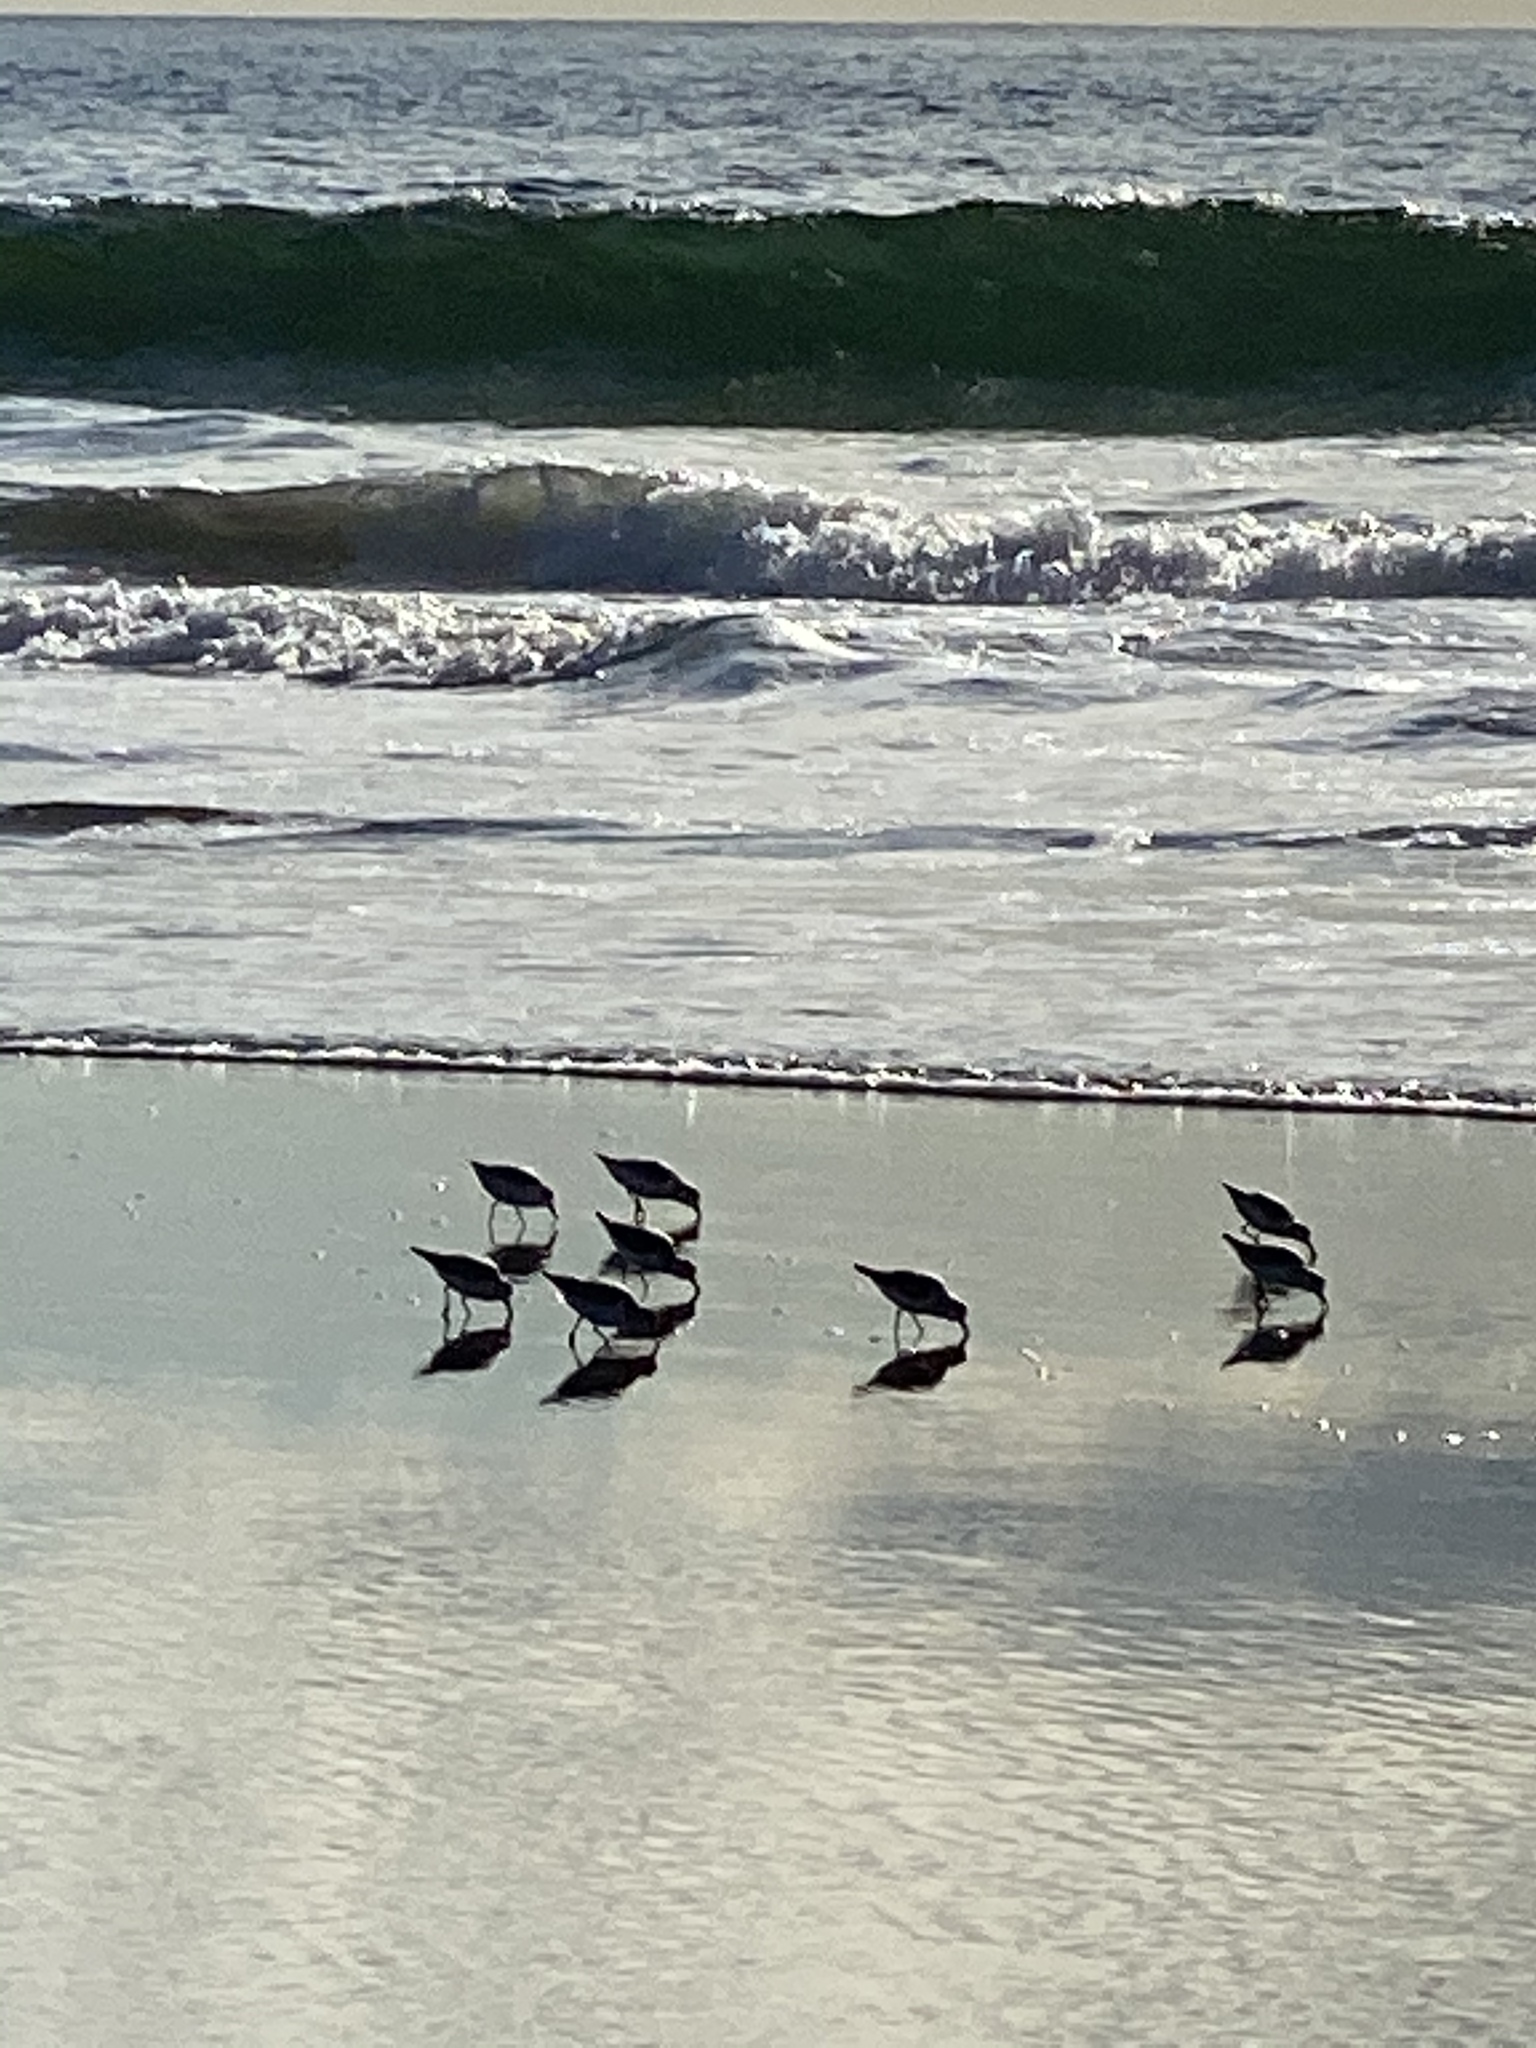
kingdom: Animalia
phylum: Chordata
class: Aves
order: Charadriiformes
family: Scolopacidae
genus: Calidris
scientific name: Calidris alba
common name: Sanderling
